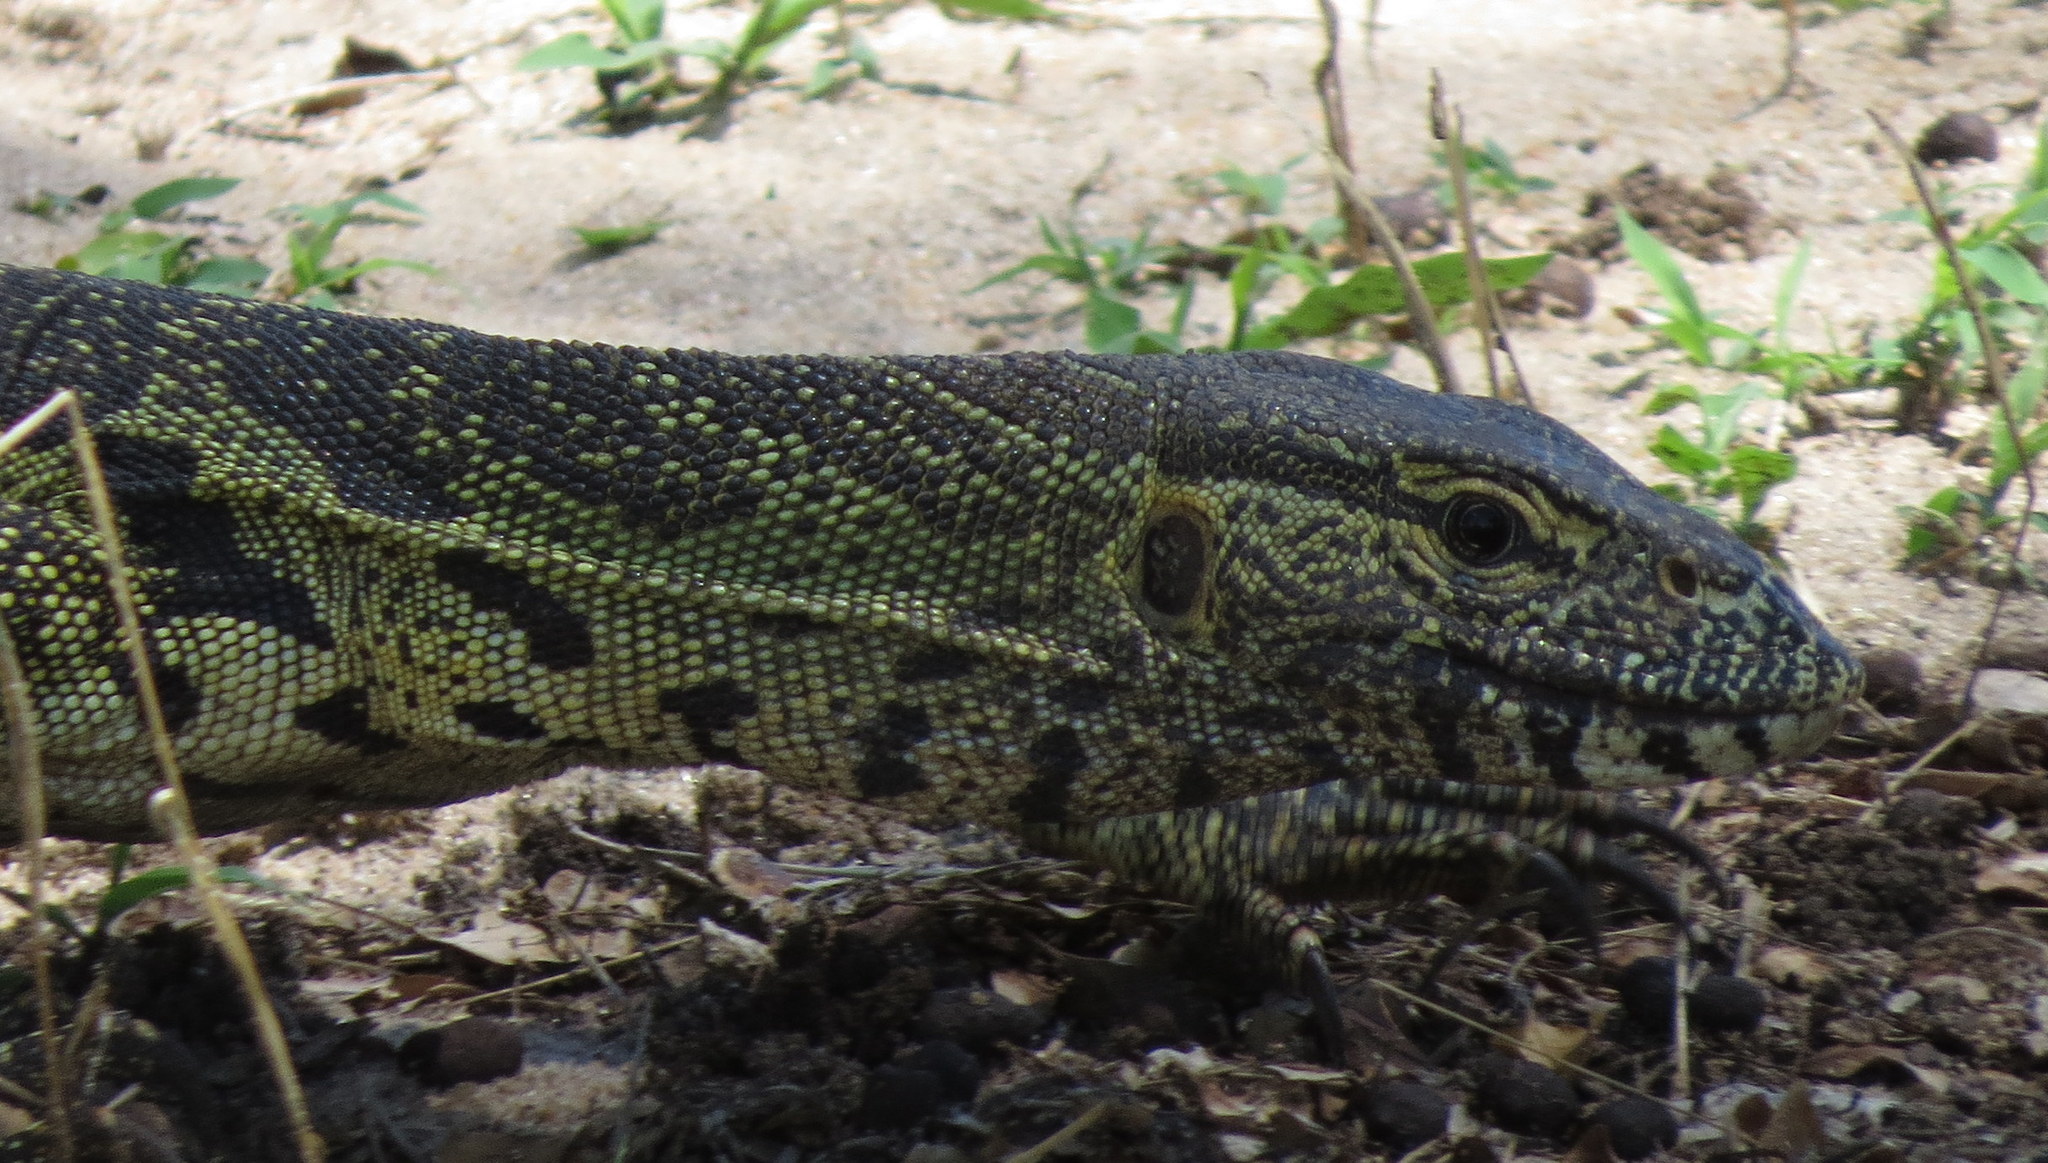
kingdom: Animalia
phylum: Chordata
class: Squamata
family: Varanidae
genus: Varanus
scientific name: Varanus niloticus
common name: Nile monitor
